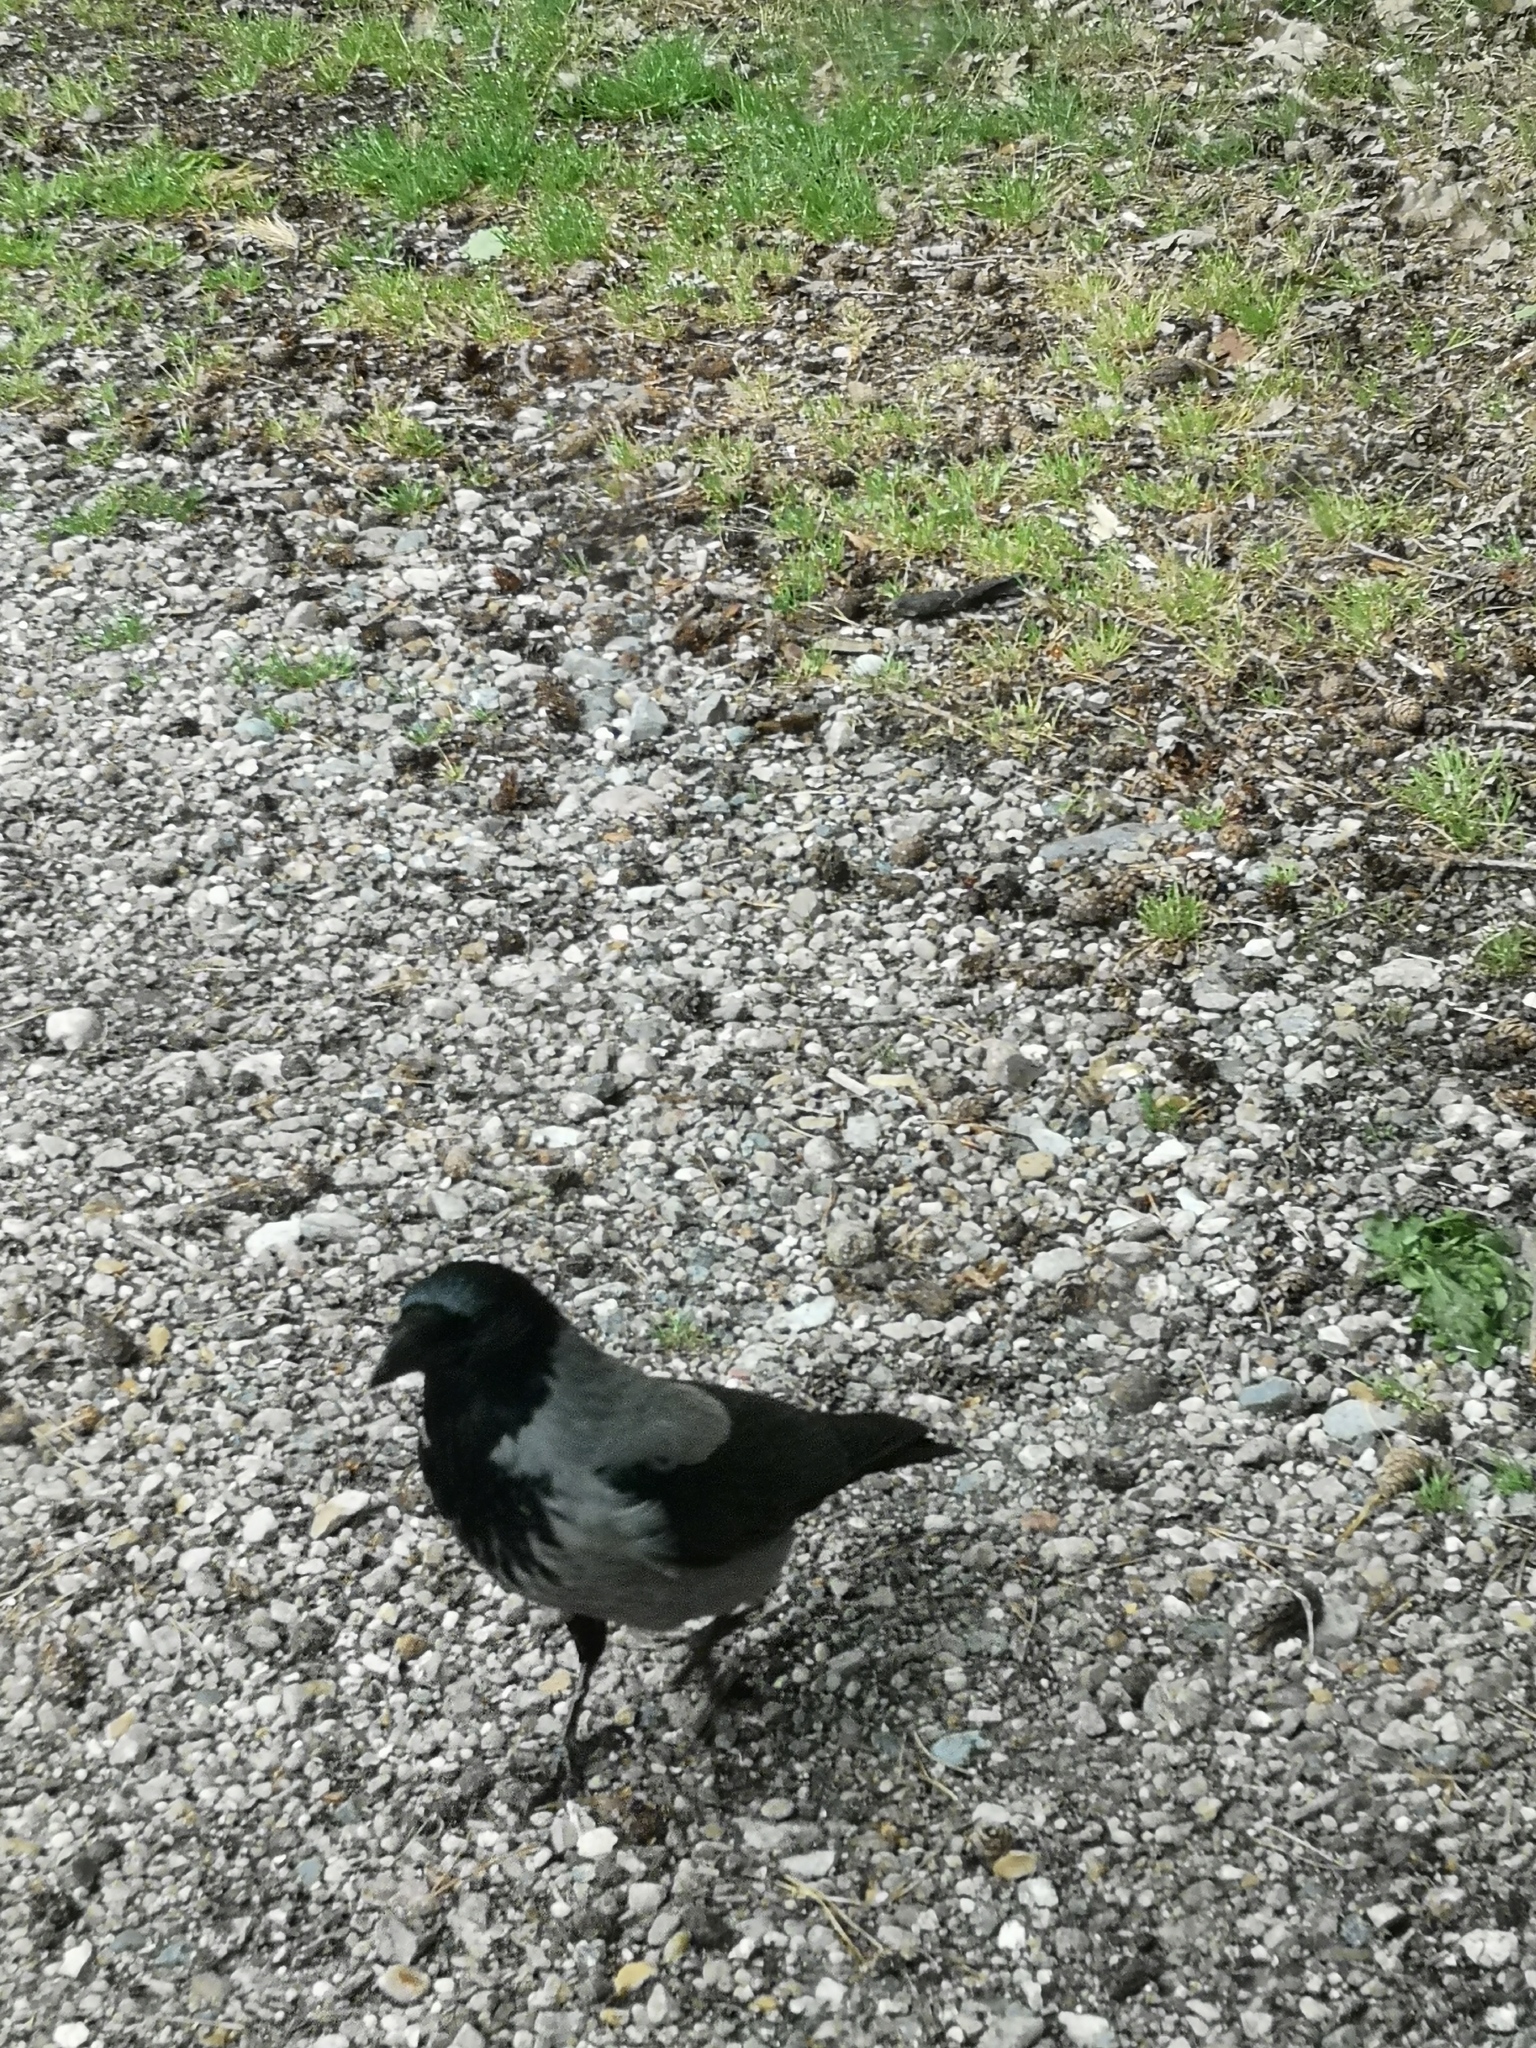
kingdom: Animalia
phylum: Chordata
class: Aves
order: Passeriformes
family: Corvidae
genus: Corvus
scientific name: Corvus cornix
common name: Hooded crow
